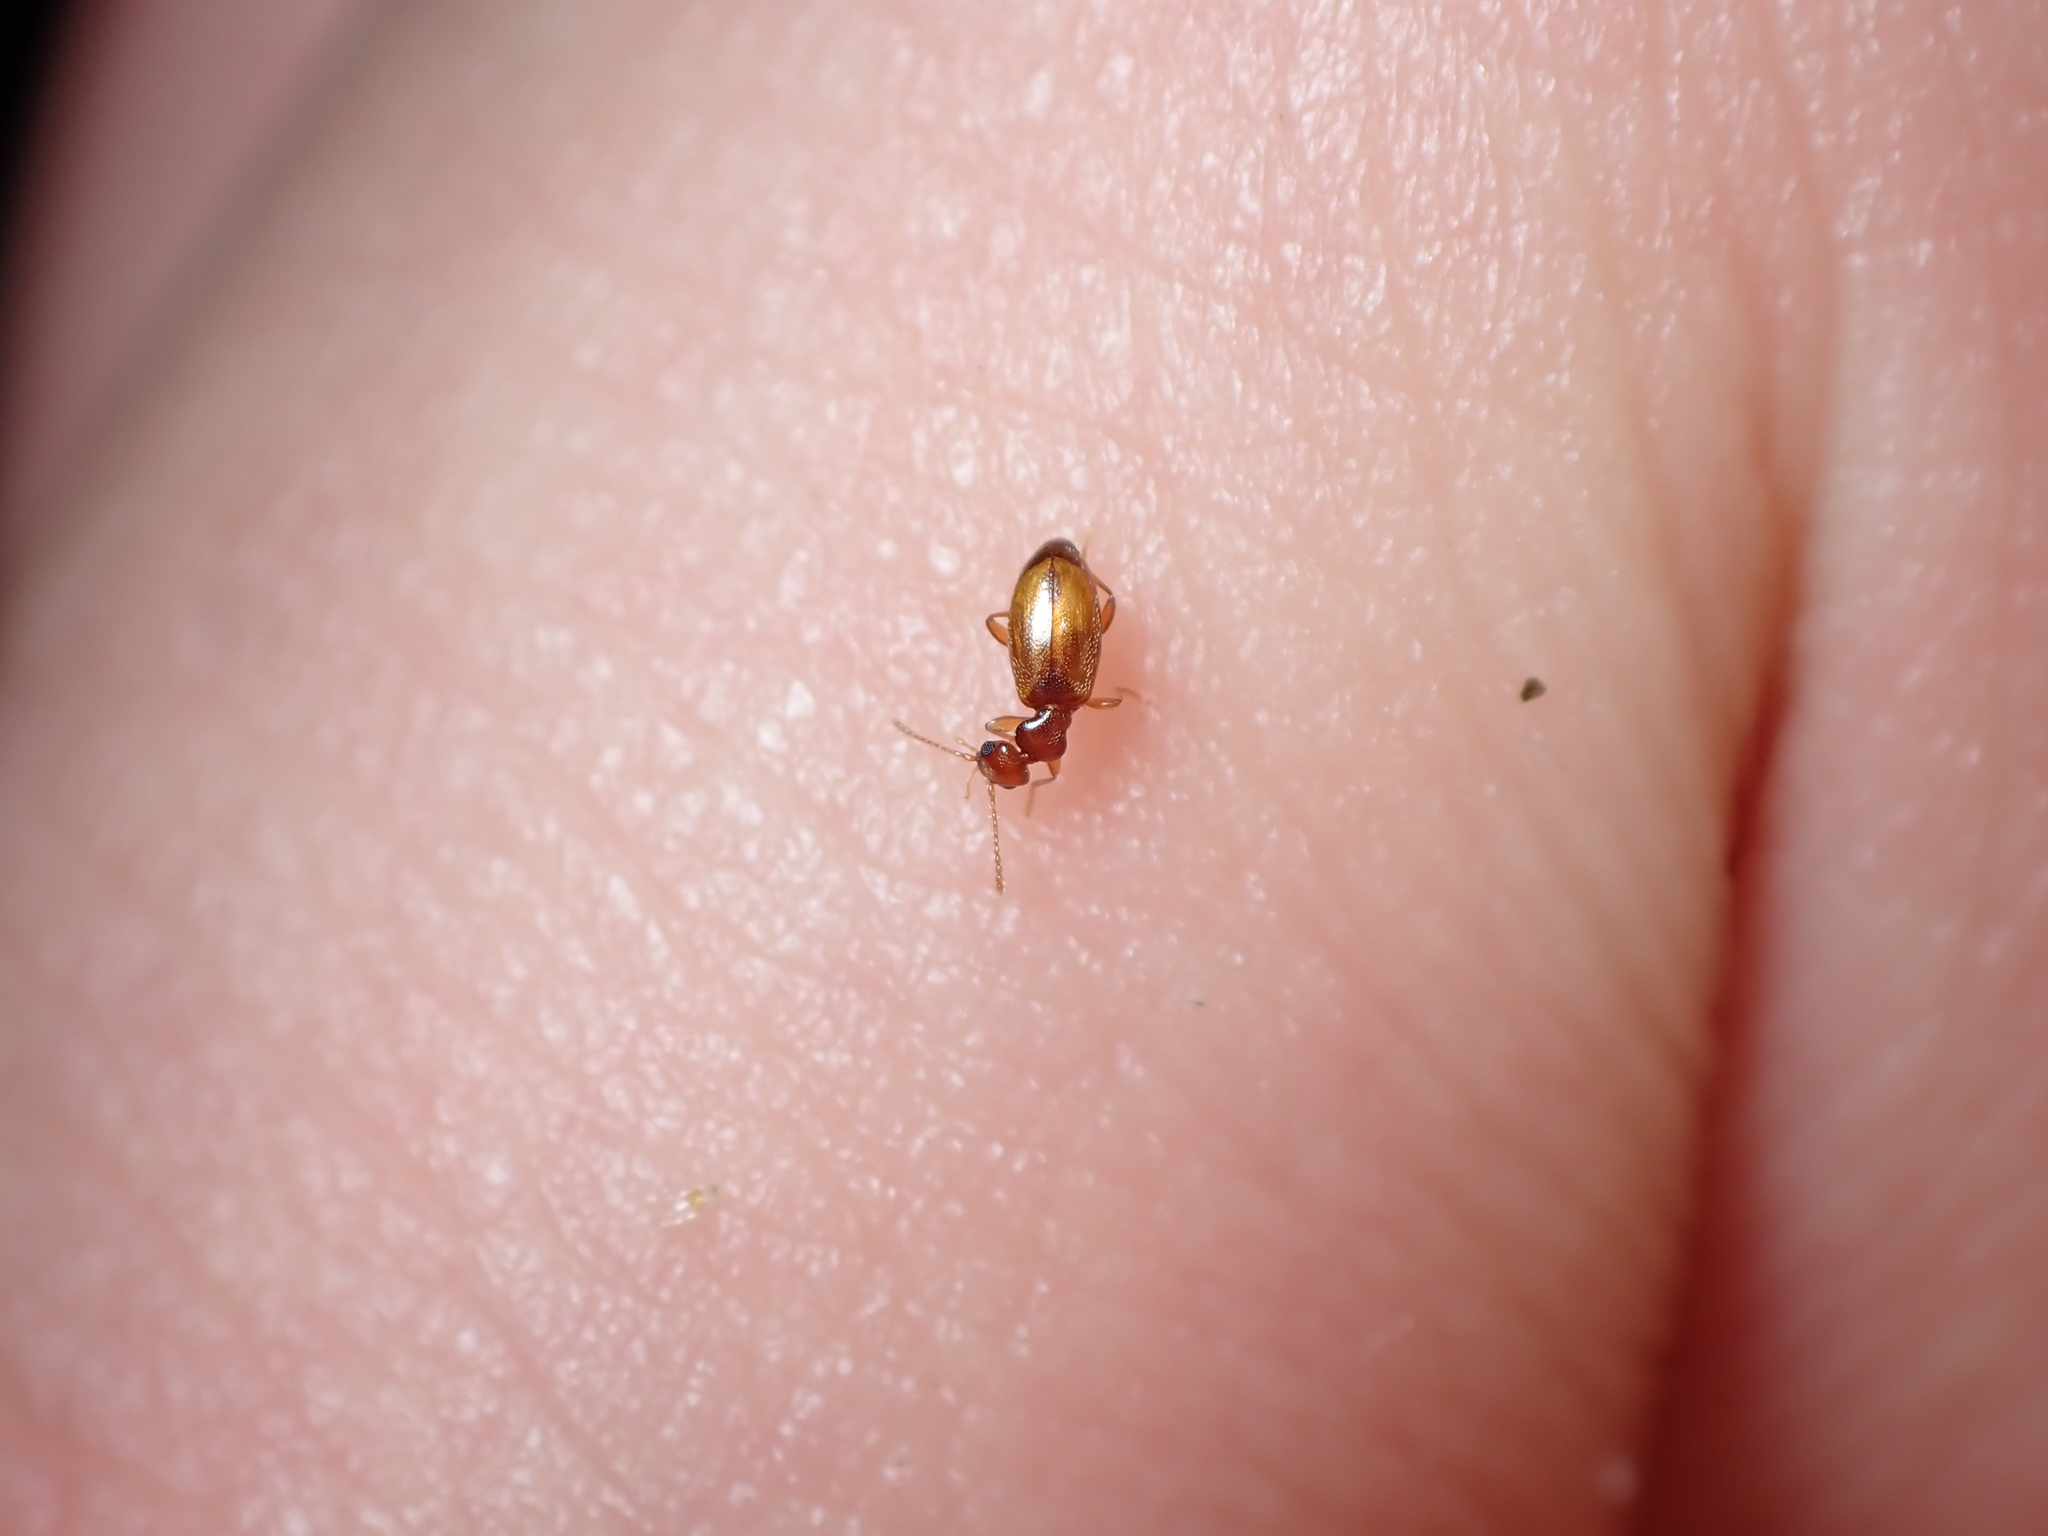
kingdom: Animalia
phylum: Arthropoda
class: Insecta
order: Coleoptera
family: Anthicidae
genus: Pseudocyclodinus
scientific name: Pseudocyclodinus
